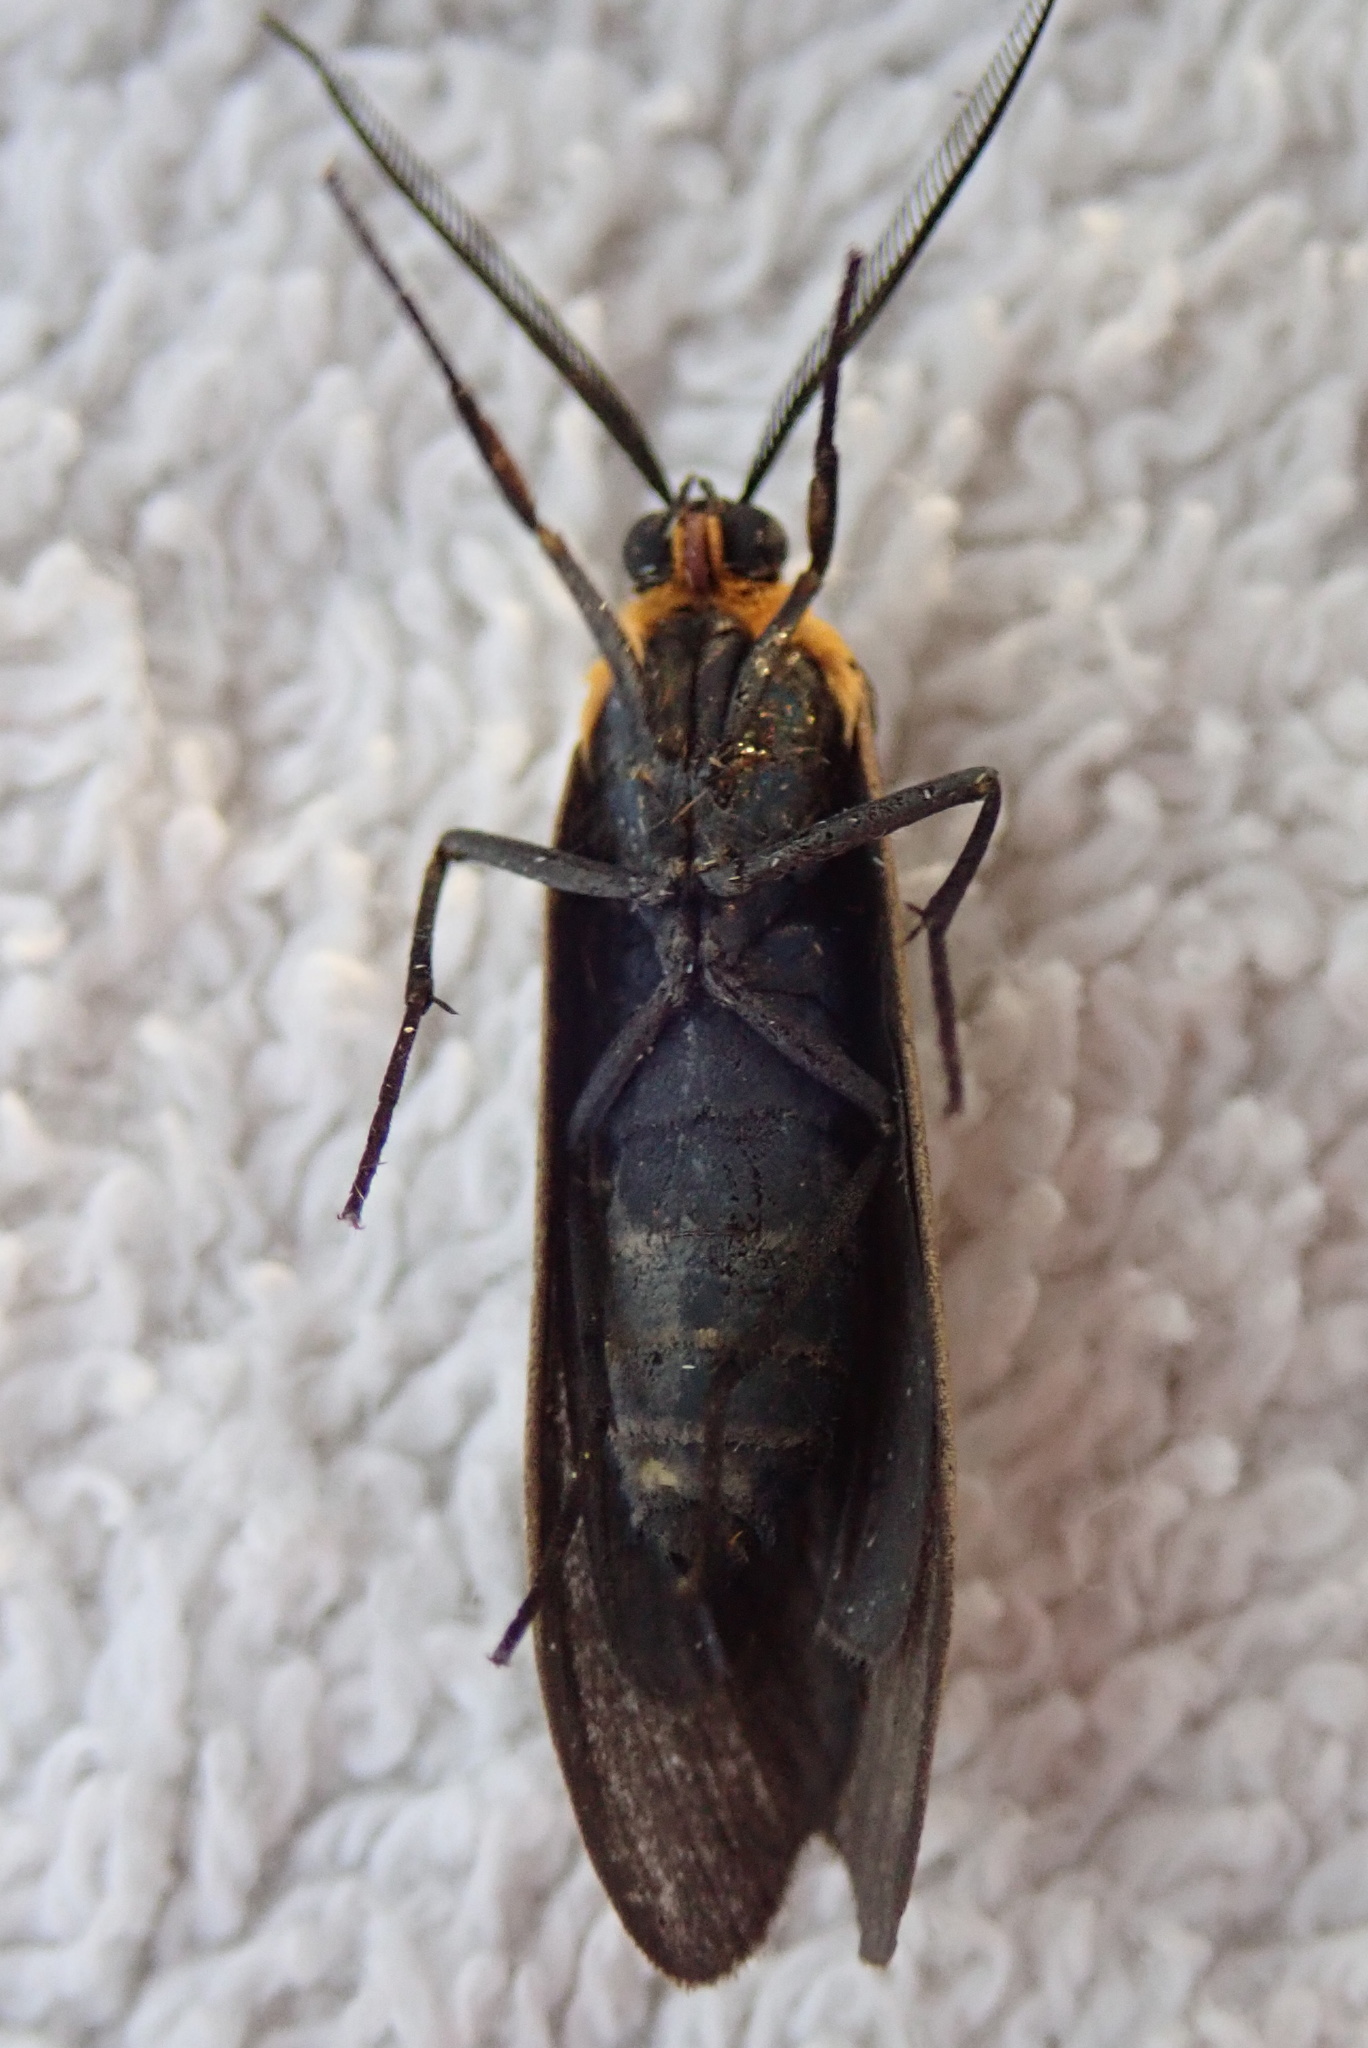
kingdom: Animalia
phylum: Arthropoda
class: Insecta
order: Lepidoptera
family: Erebidae
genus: Cisseps
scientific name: Cisseps fulvicollis
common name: Yellow-collared scape moth
